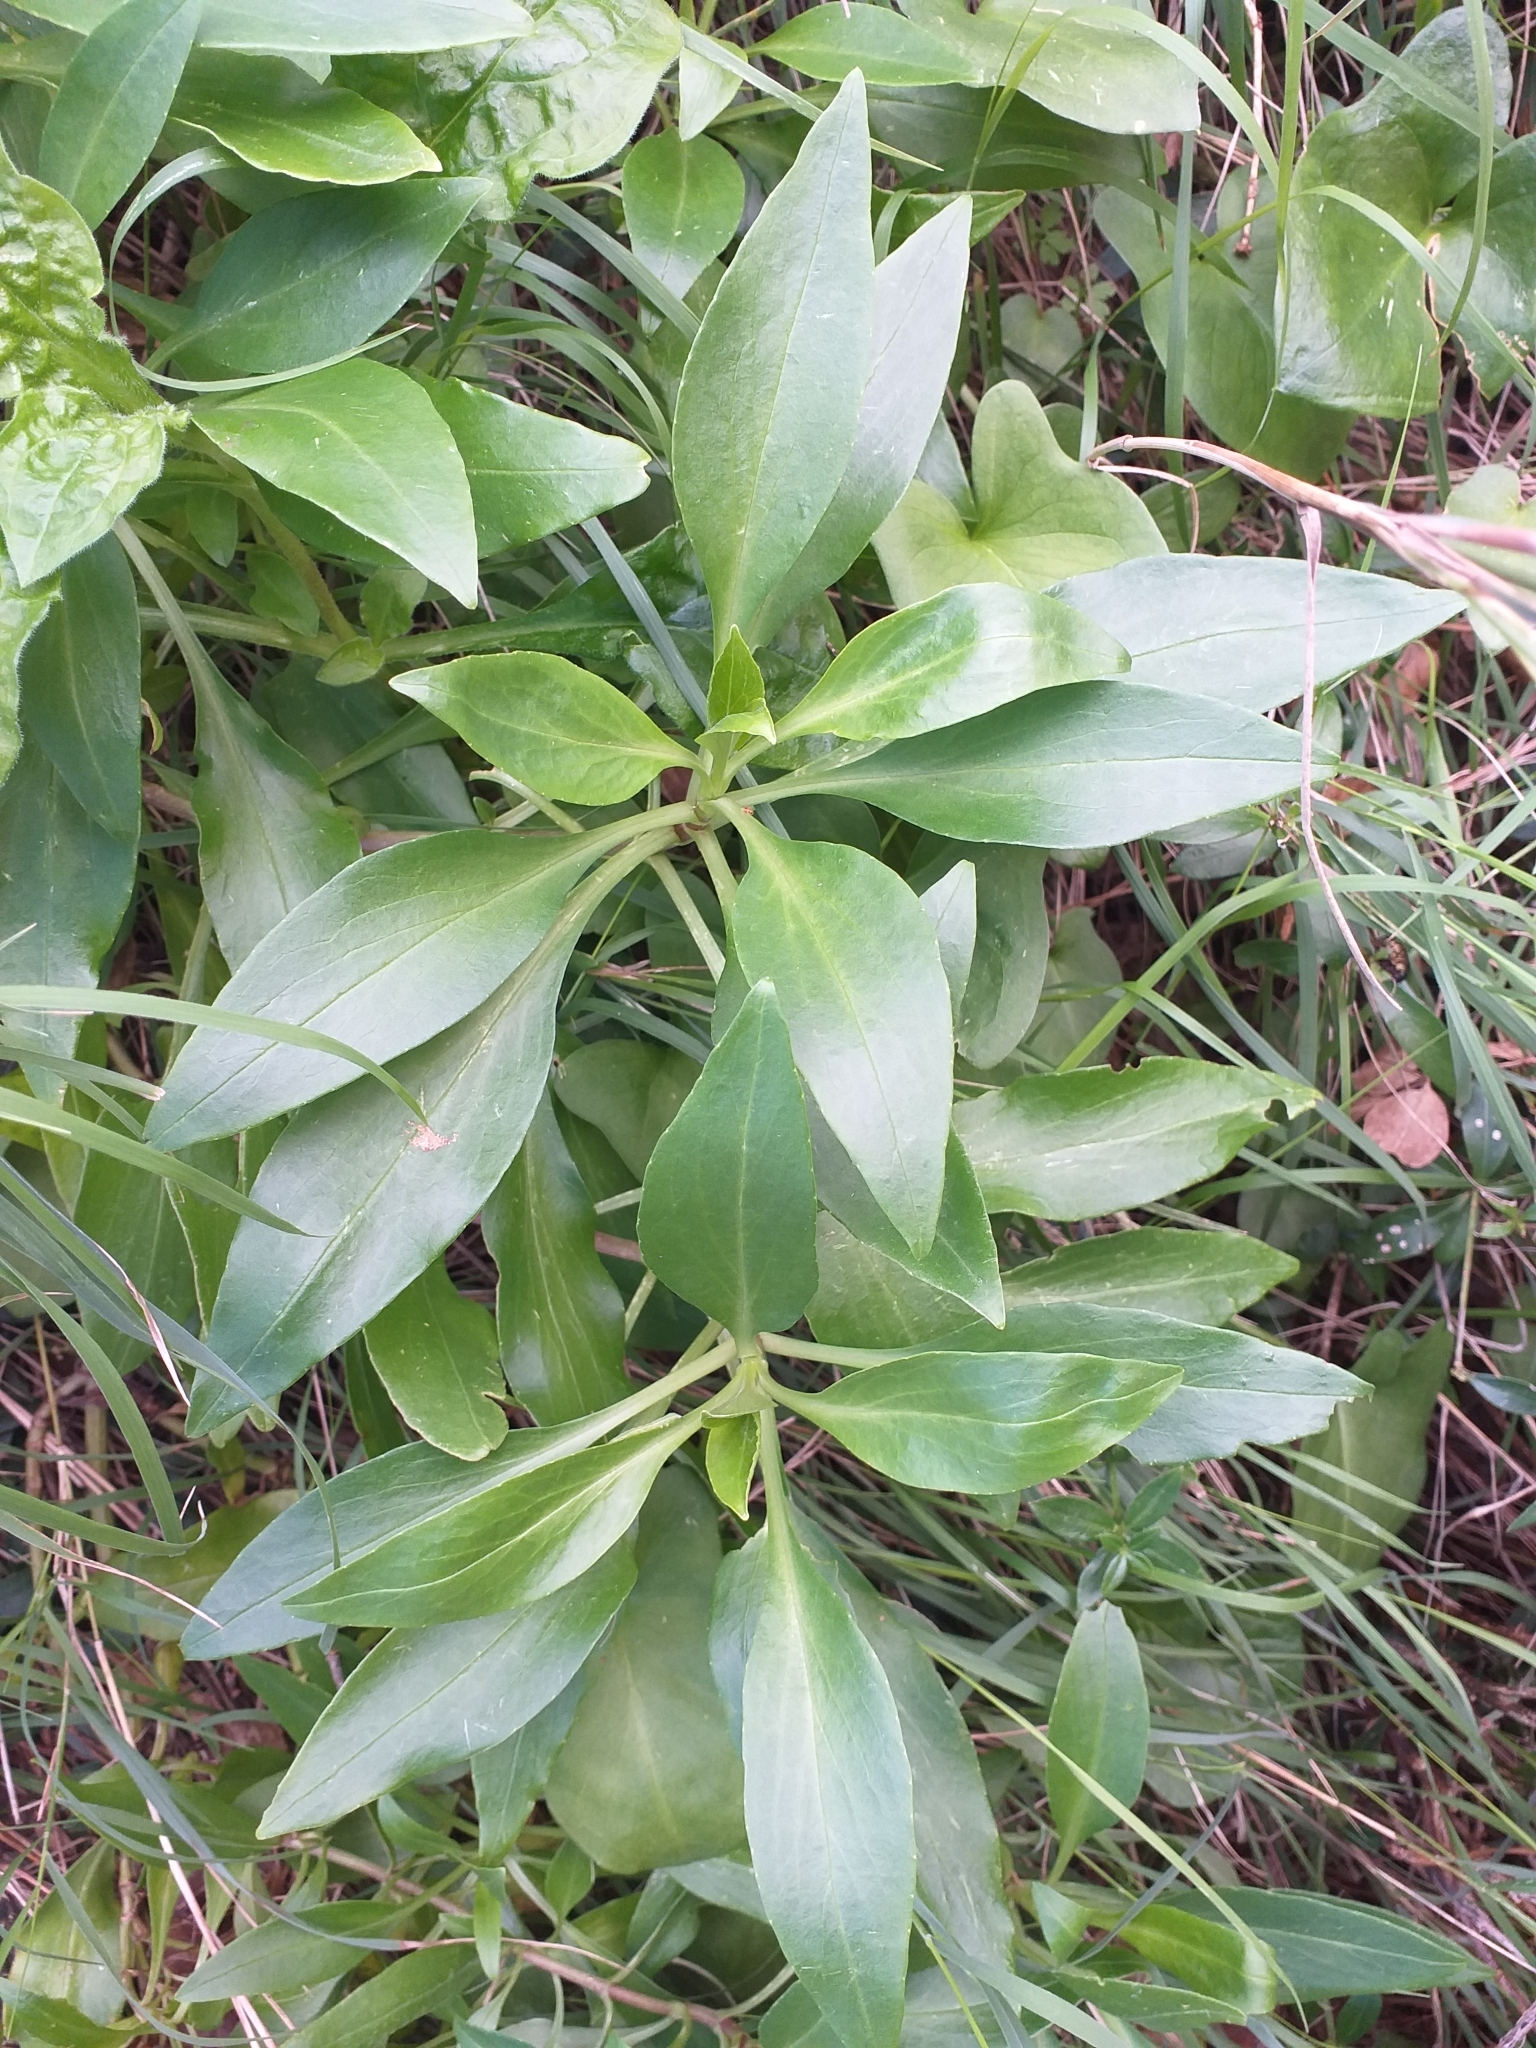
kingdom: Plantae
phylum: Tracheophyta
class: Magnoliopsida
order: Dipsacales
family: Caprifoliaceae
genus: Centranthus
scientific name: Centranthus ruber
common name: Red valerian
